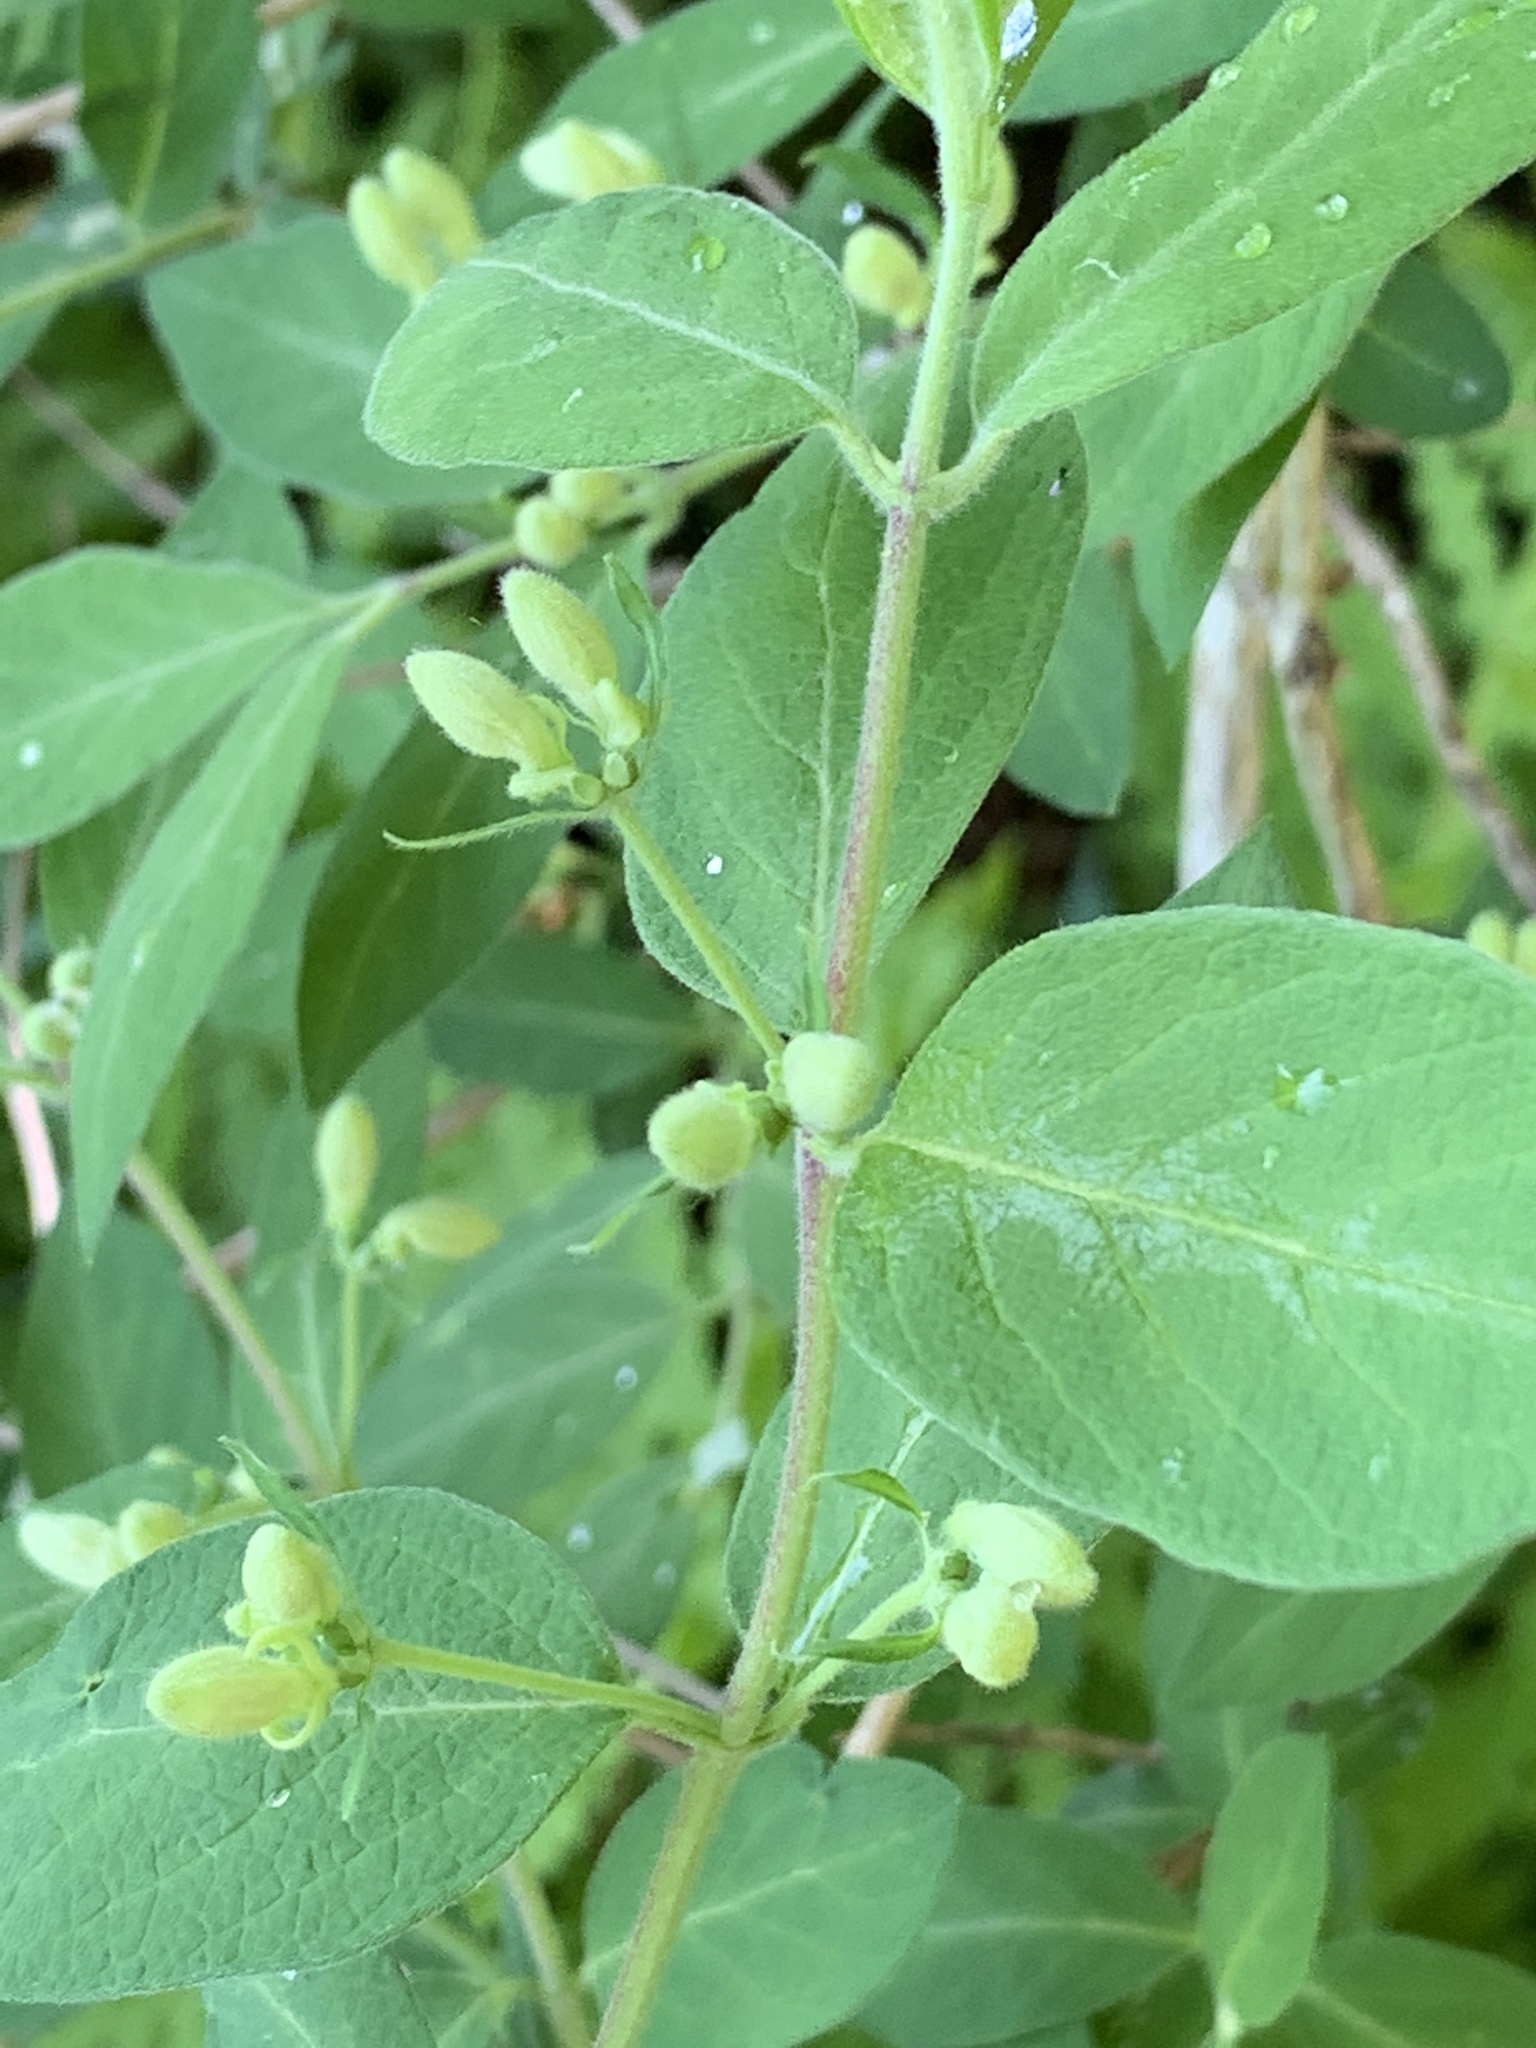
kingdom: Plantae
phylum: Tracheophyta
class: Magnoliopsida
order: Dipsacales
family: Caprifoliaceae
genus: Lonicera
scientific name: Lonicera
